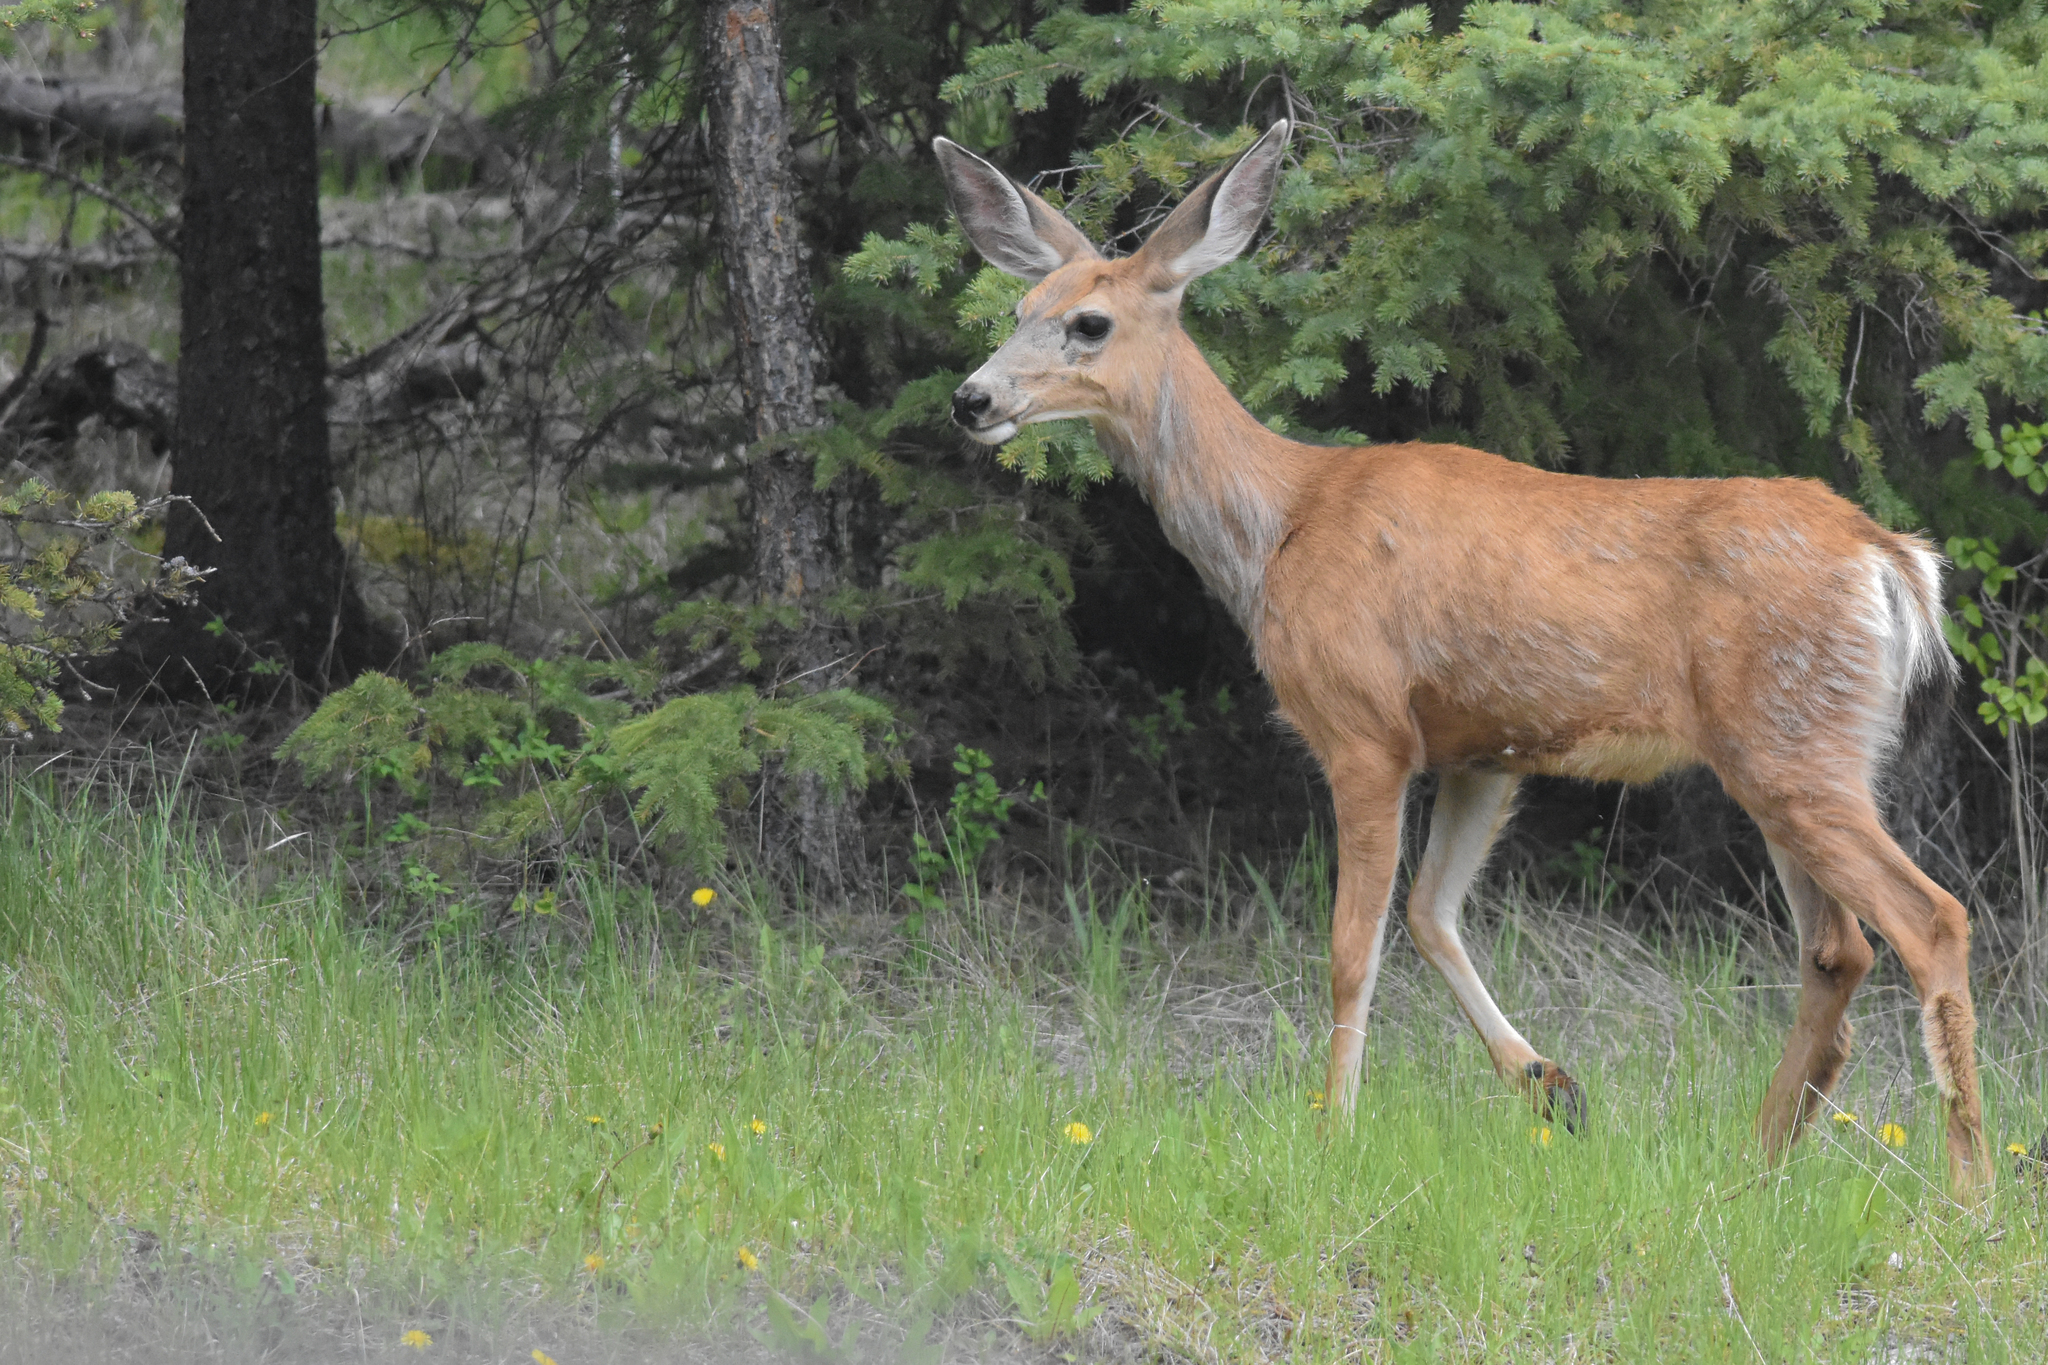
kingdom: Animalia
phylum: Chordata
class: Mammalia
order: Artiodactyla
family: Cervidae
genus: Odocoileus
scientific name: Odocoileus hemionus
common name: Mule deer
